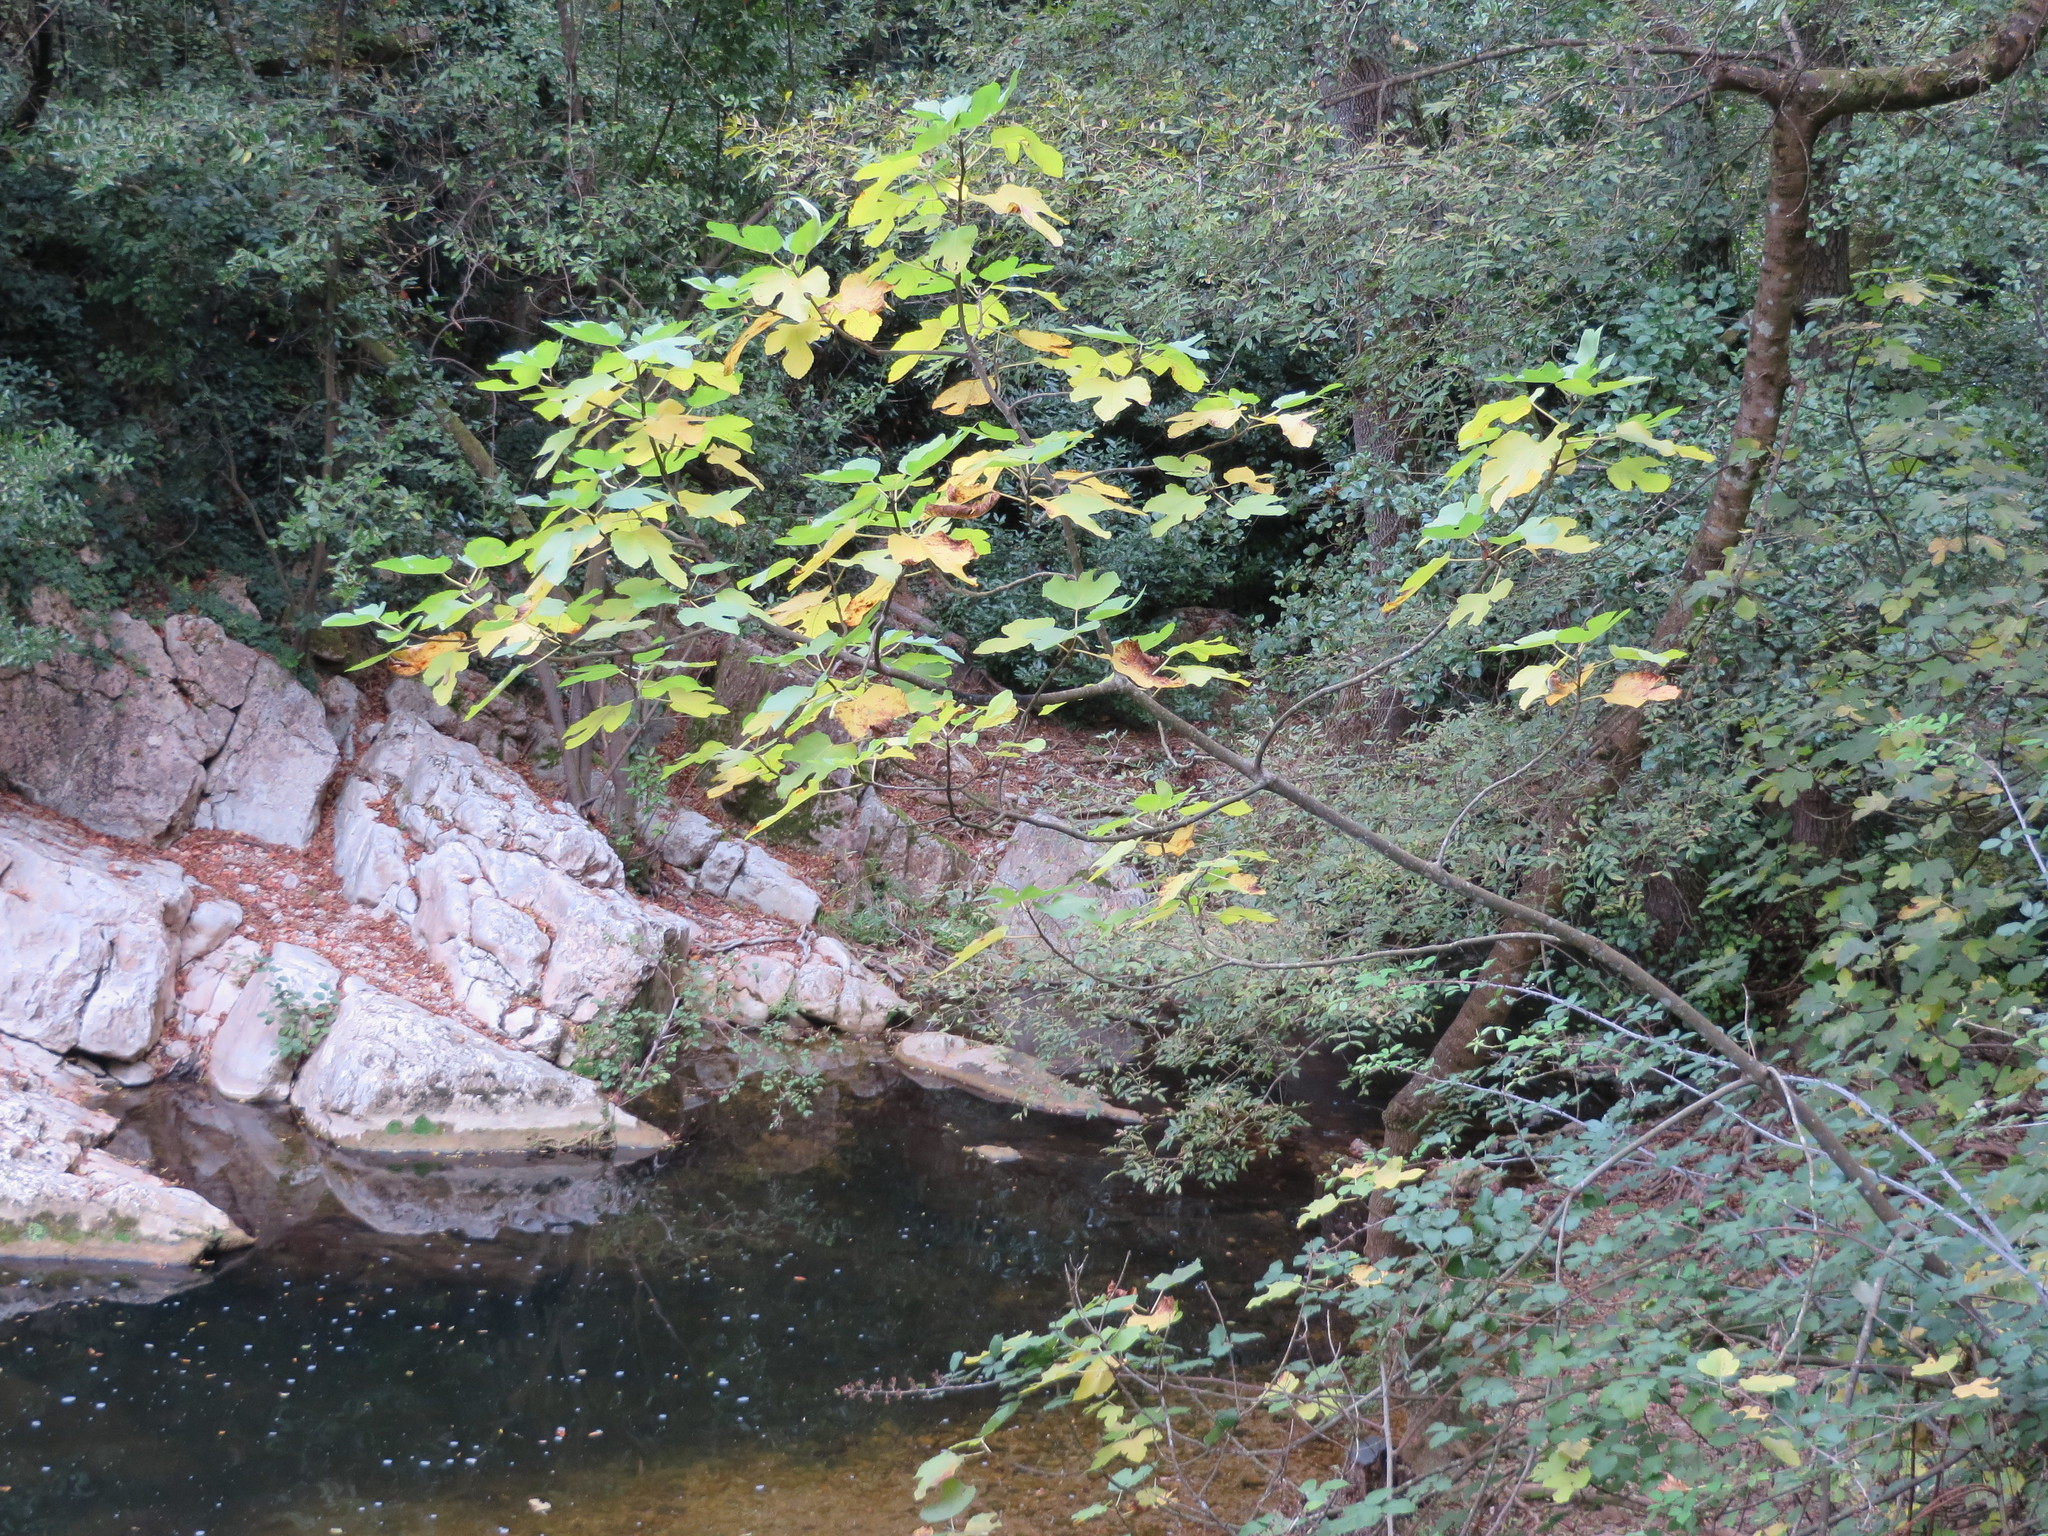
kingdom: Plantae
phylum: Tracheophyta
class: Magnoliopsida
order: Rosales
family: Moraceae
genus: Ficus
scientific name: Ficus carica
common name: Fig
